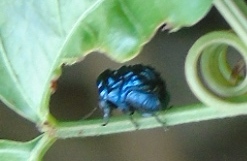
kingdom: Animalia
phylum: Arthropoda
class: Insecta
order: Coleoptera
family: Chrysomelidae
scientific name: Chrysomelidae
